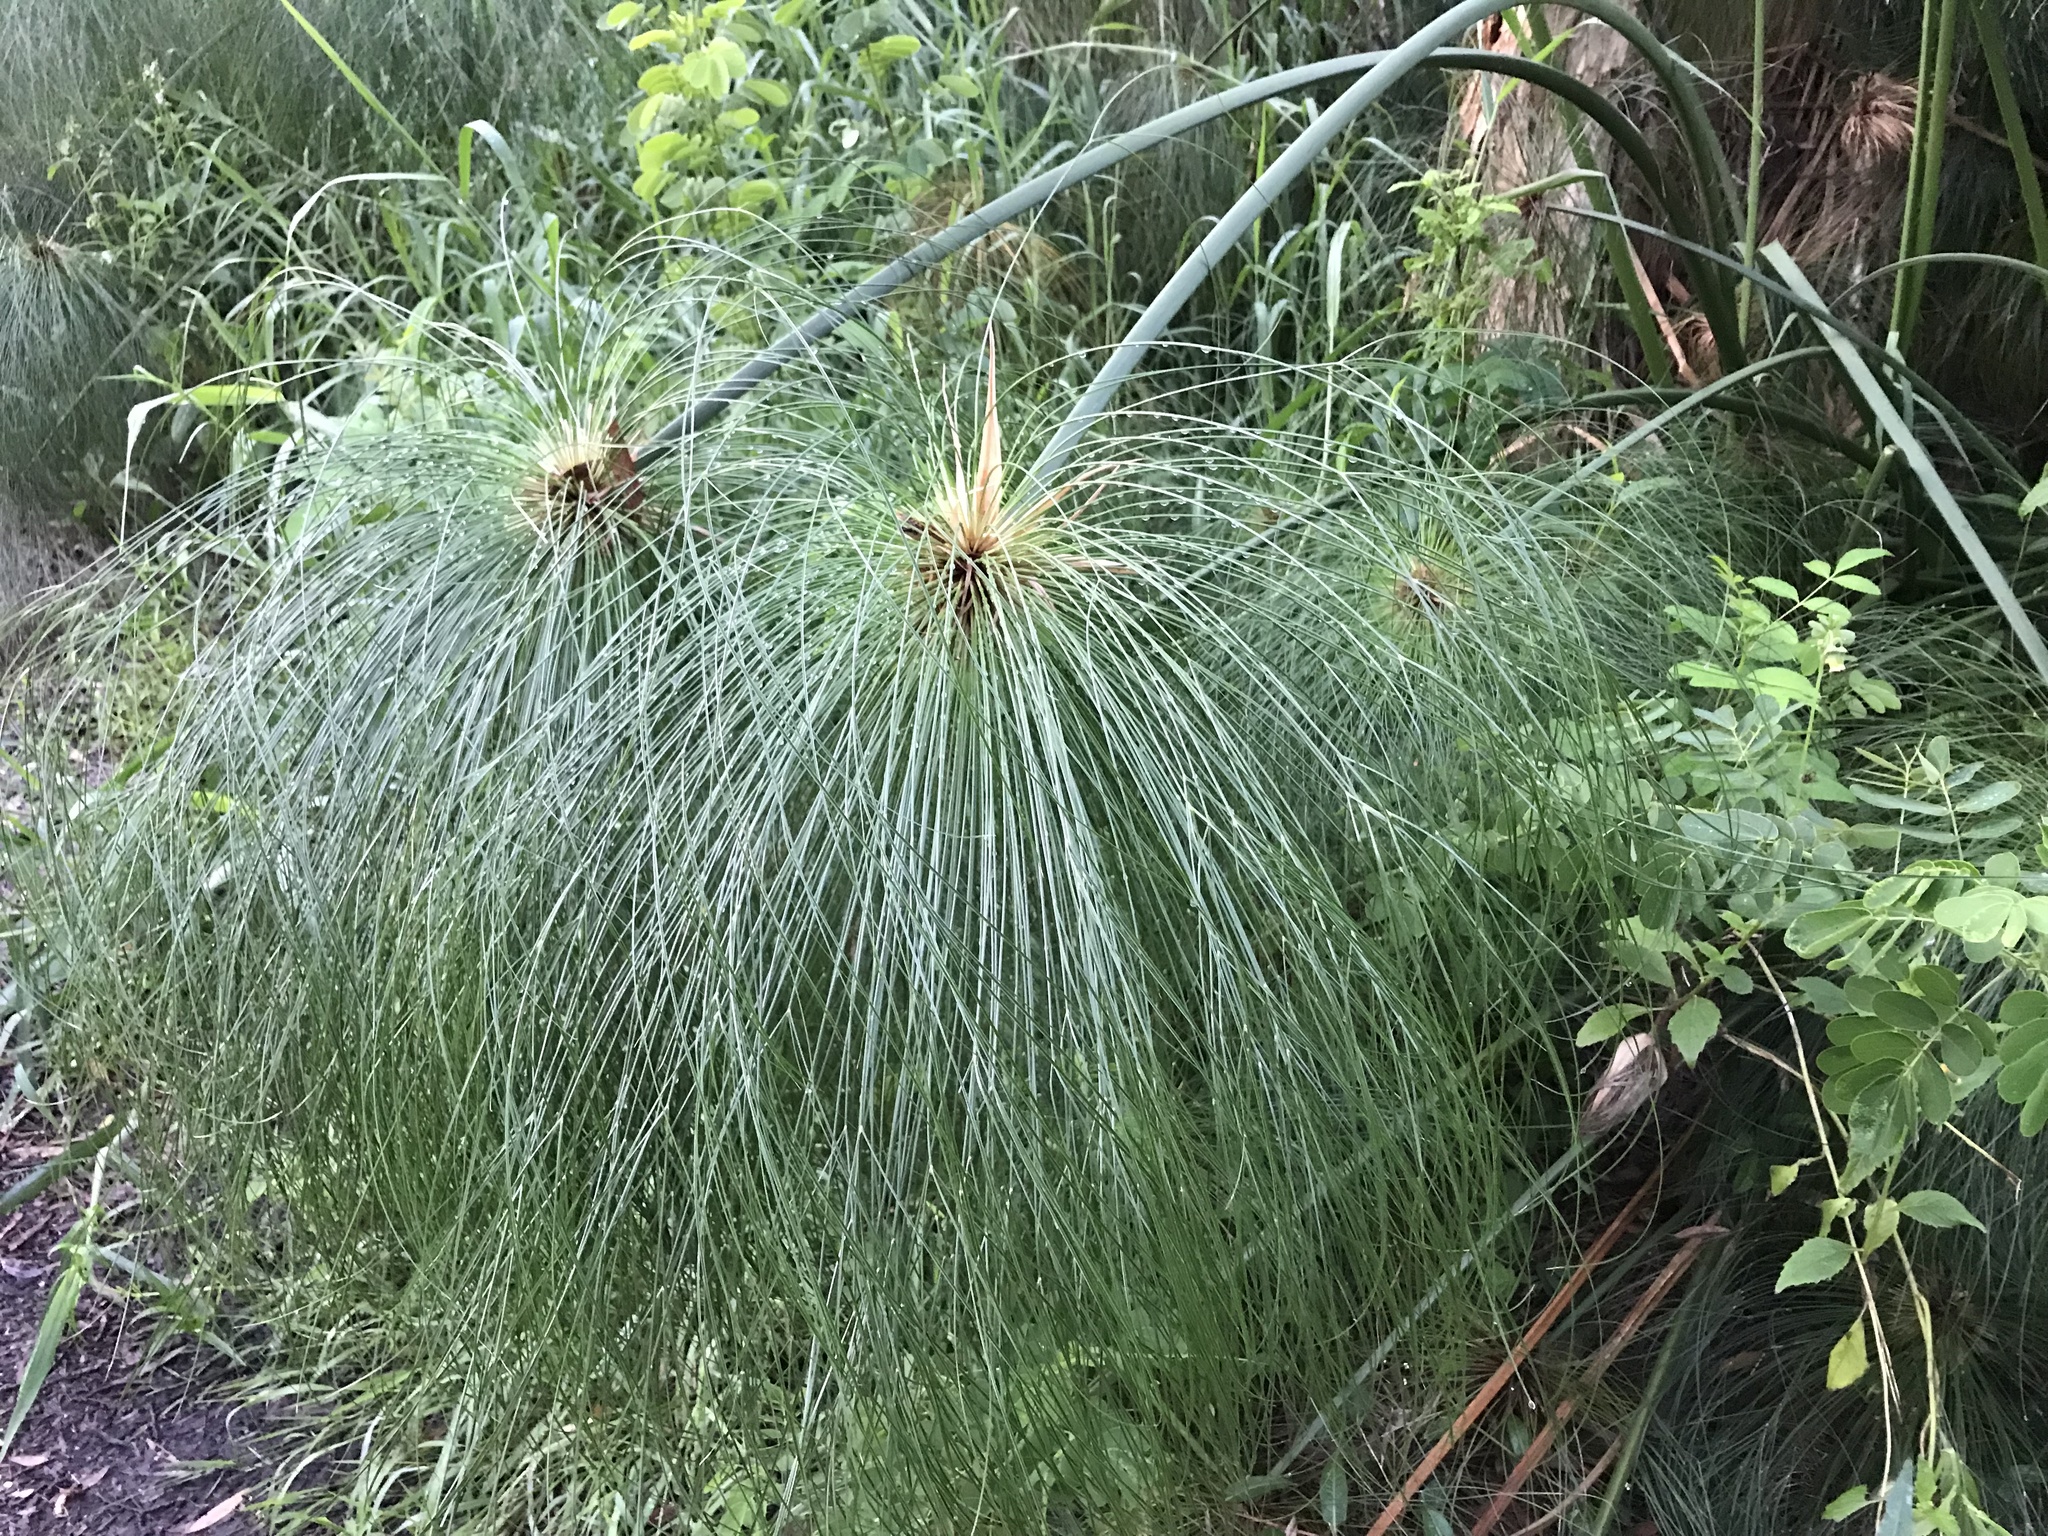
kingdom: Plantae
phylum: Tracheophyta
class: Liliopsida
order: Poales
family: Cyperaceae
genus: Cyperus
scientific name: Cyperus papyrus
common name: Papyrus
